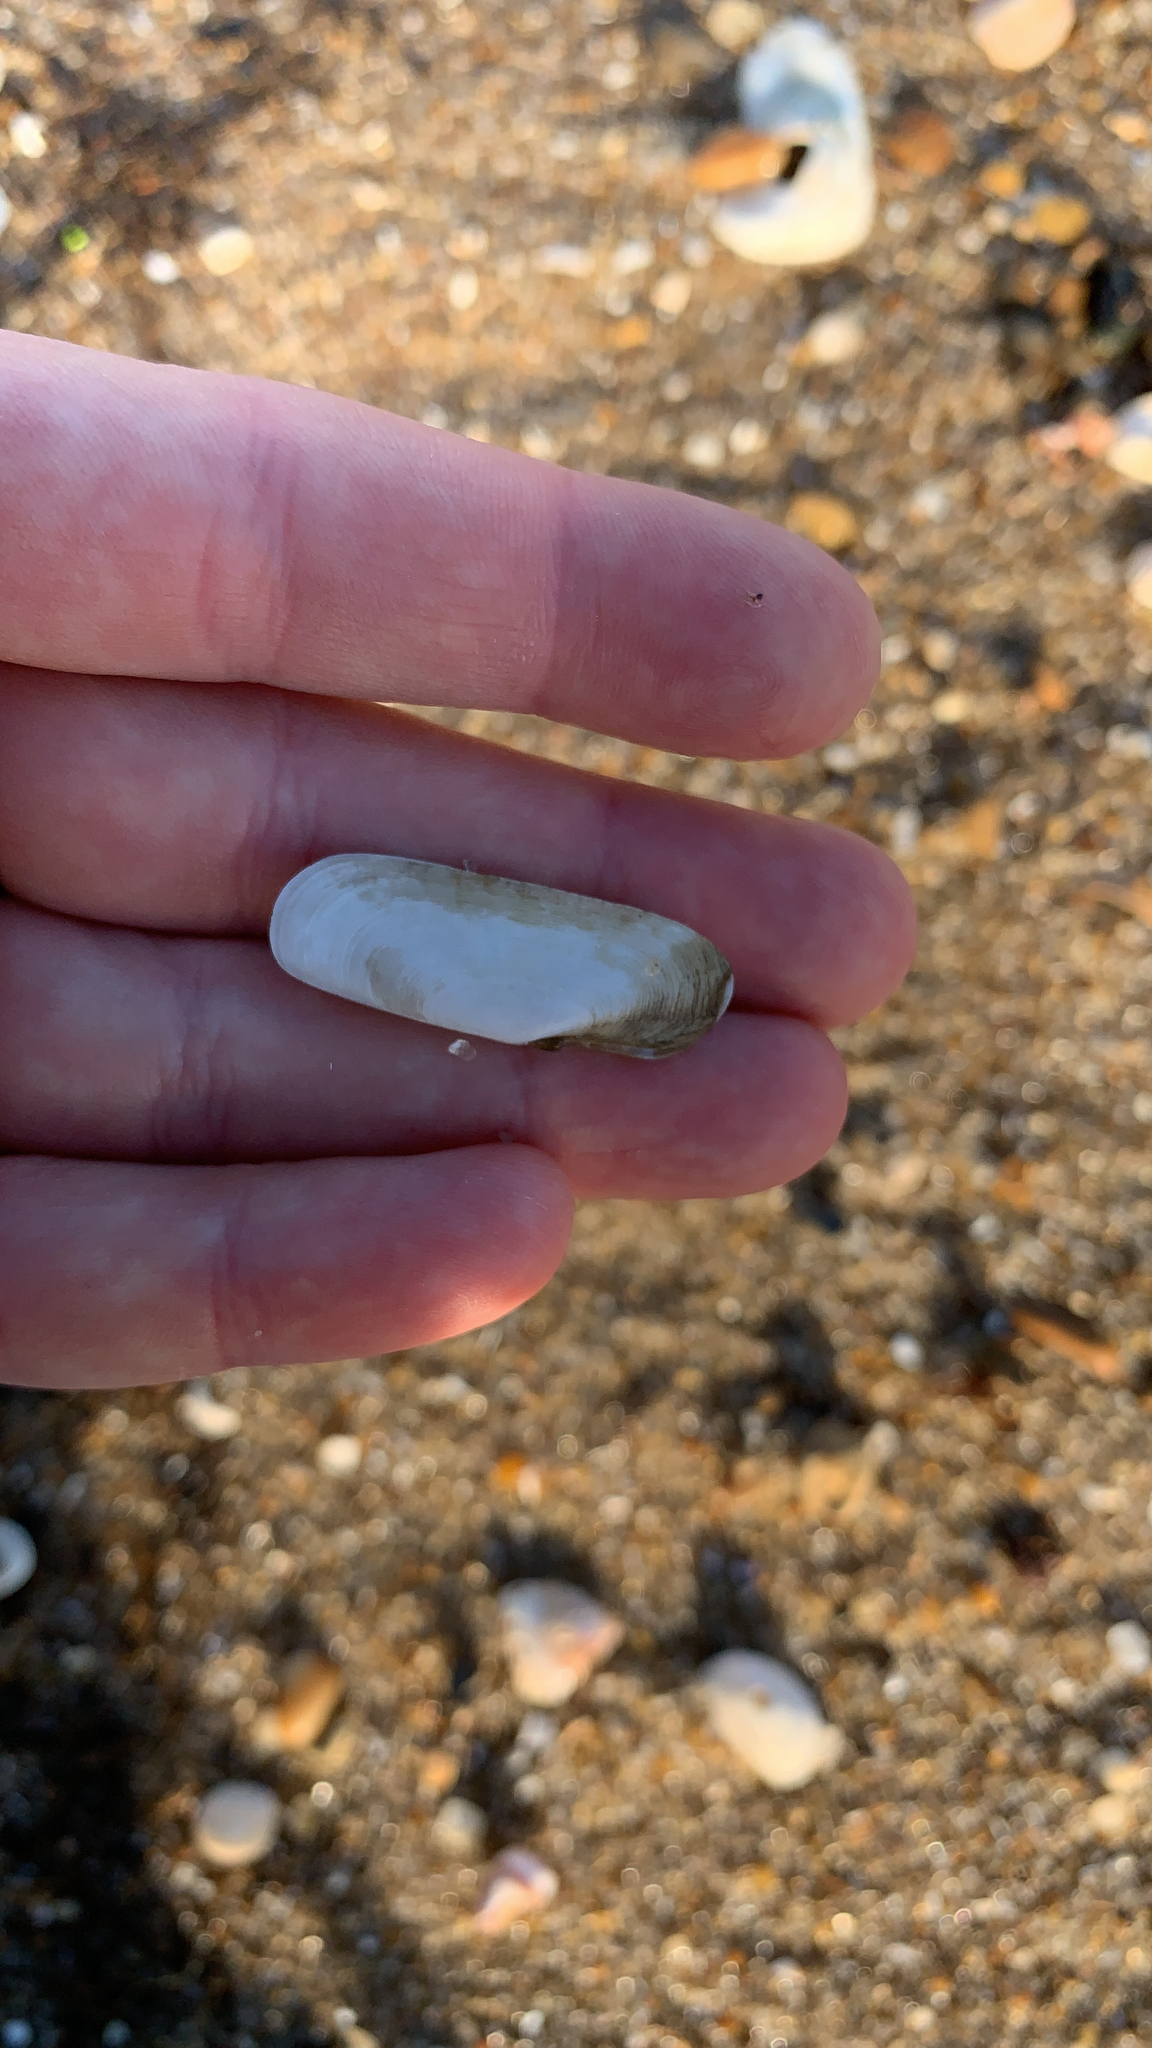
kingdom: Animalia
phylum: Mollusca
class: Bivalvia
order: Cardiida
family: Solecurtidae
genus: Tagelus
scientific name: Tagelus plebeius
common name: Stout tagelus
